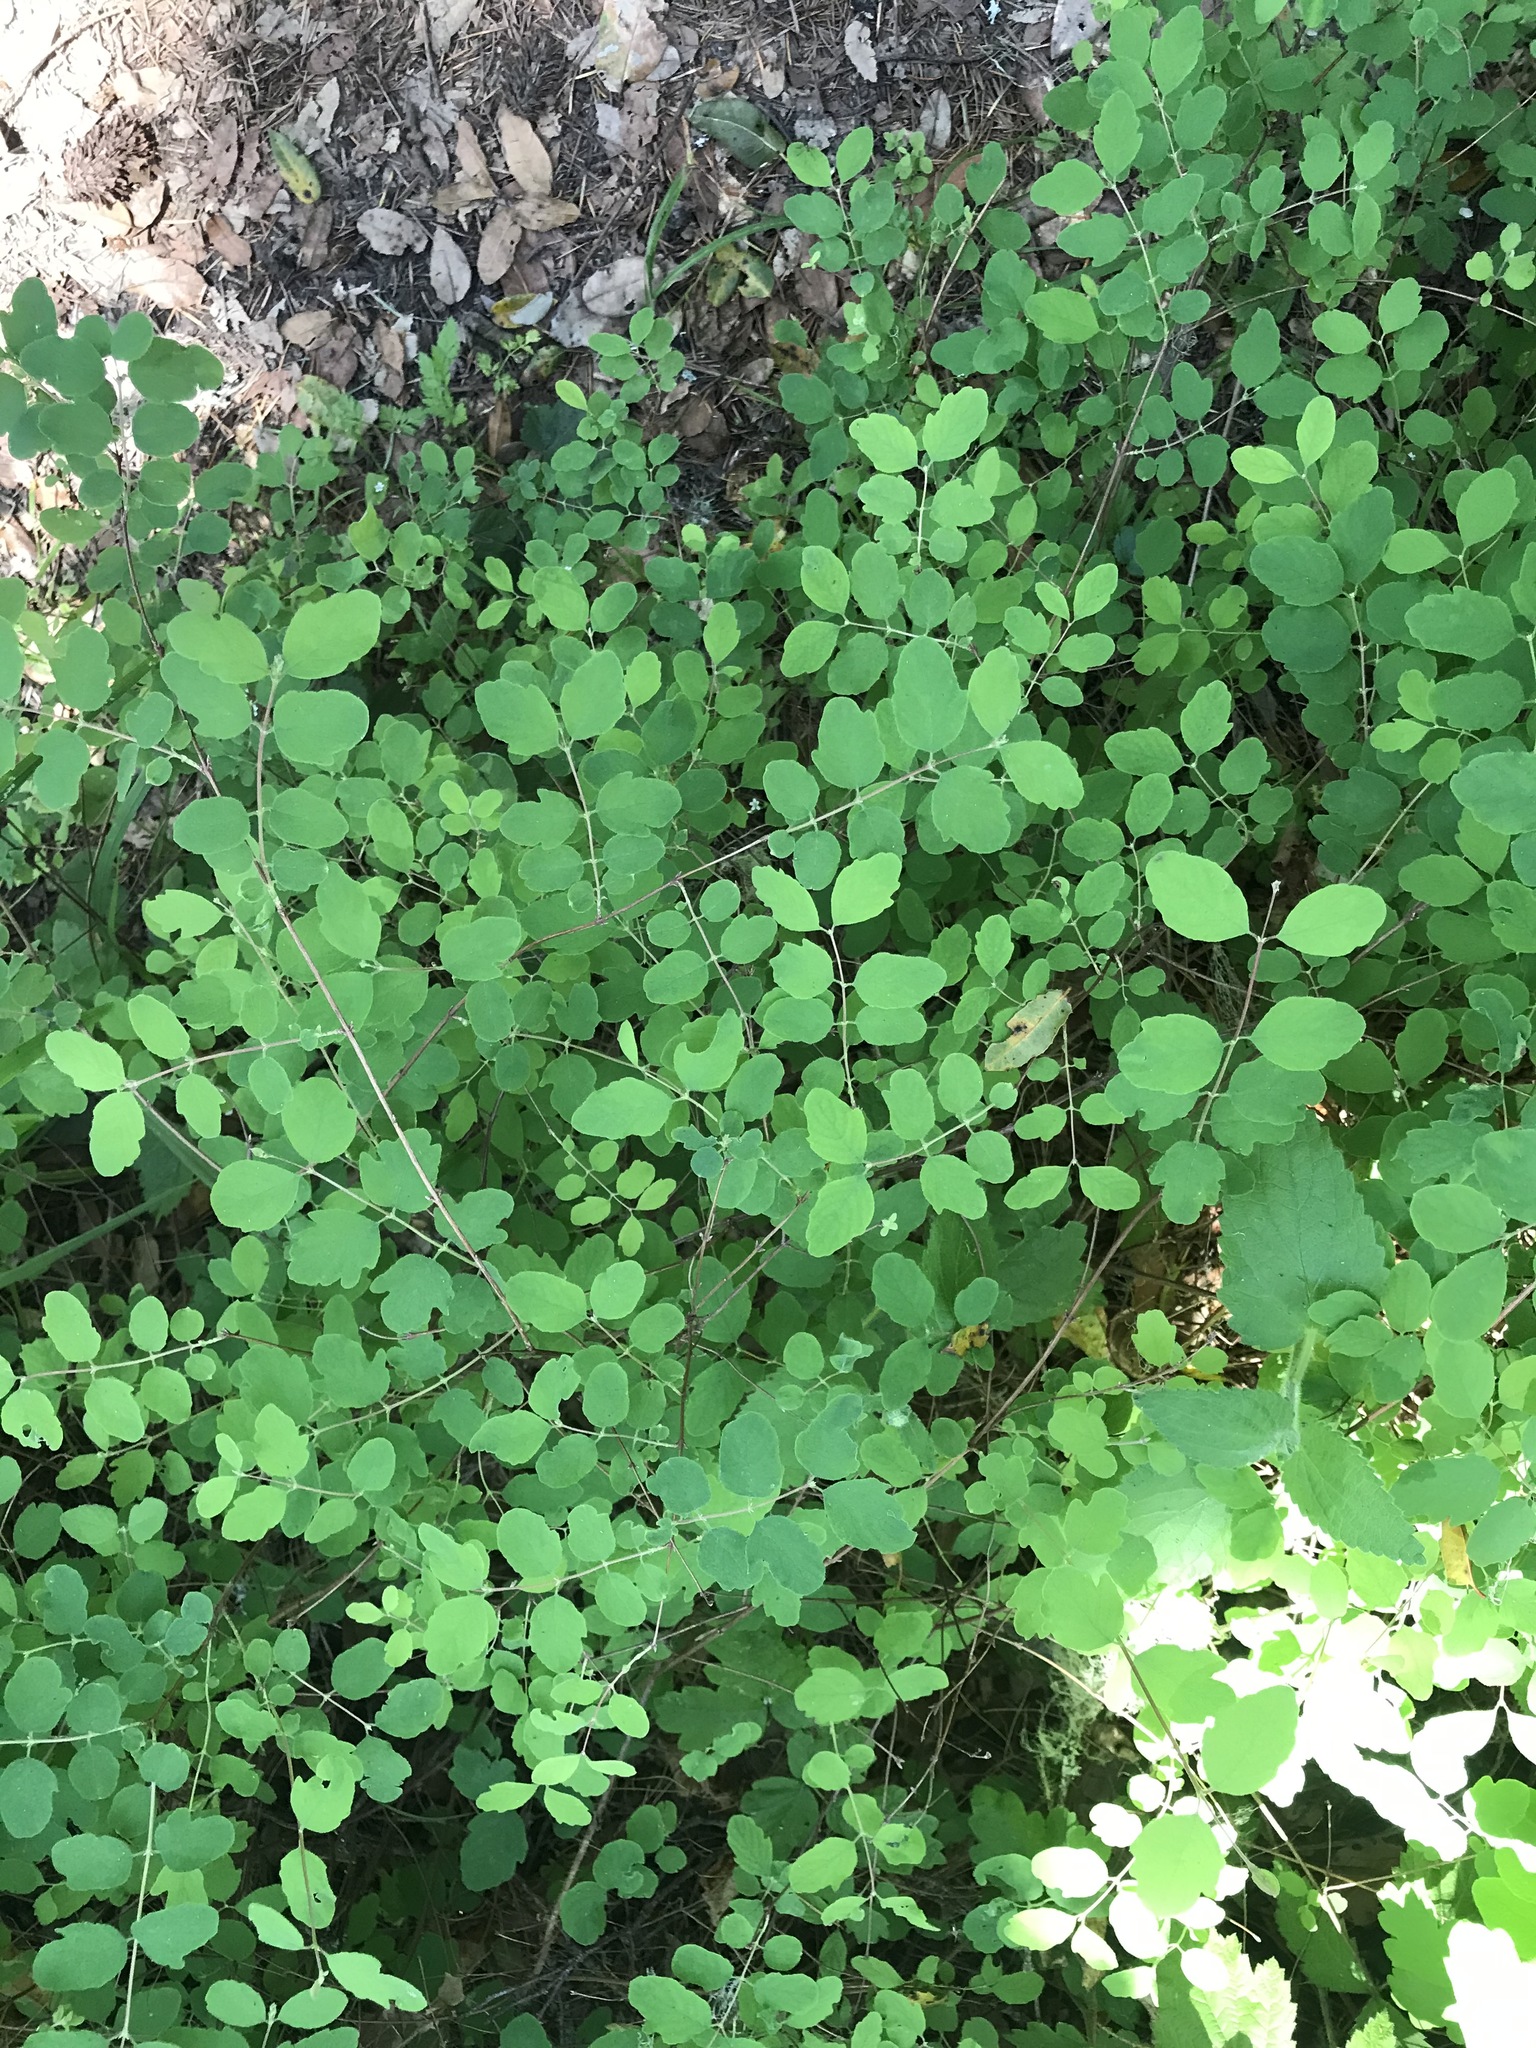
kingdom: Plantae
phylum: Tracheophyta
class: Magnoliopsida
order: Dipsacales
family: Caprifoliaceae
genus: Symphoricarpos
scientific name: Symphoricarpos albus
